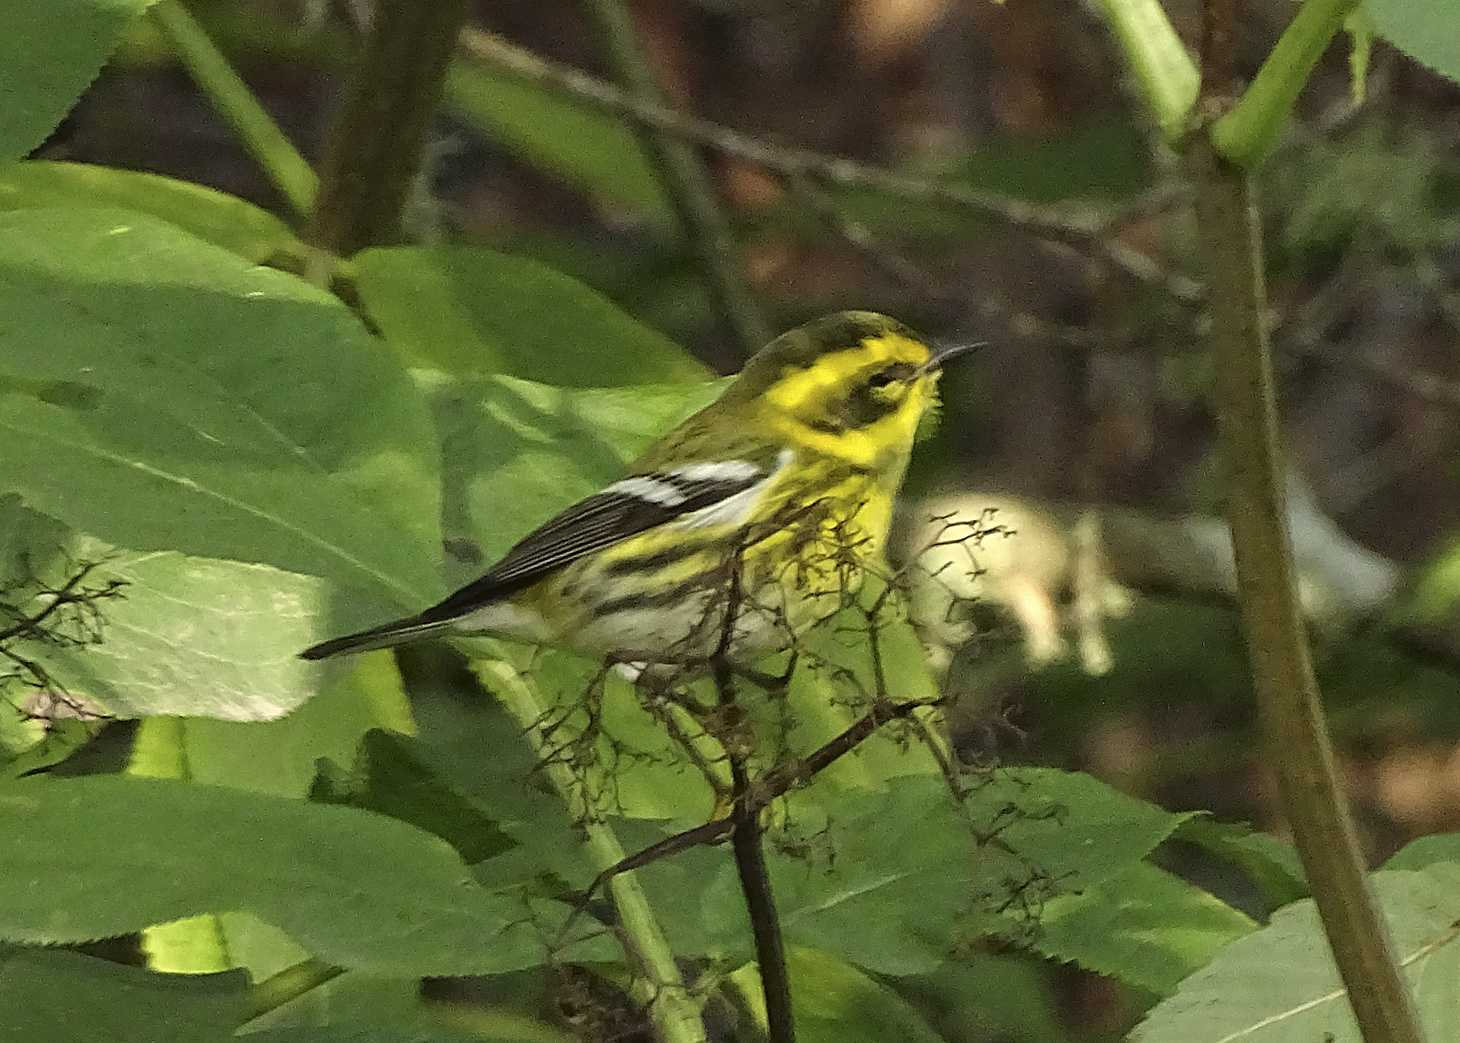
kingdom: Animalia
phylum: Chordata
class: Aves
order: Passeriformes
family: Parulidae
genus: Setophaga
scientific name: Setophaga townsendi
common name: Townsend's warbler
